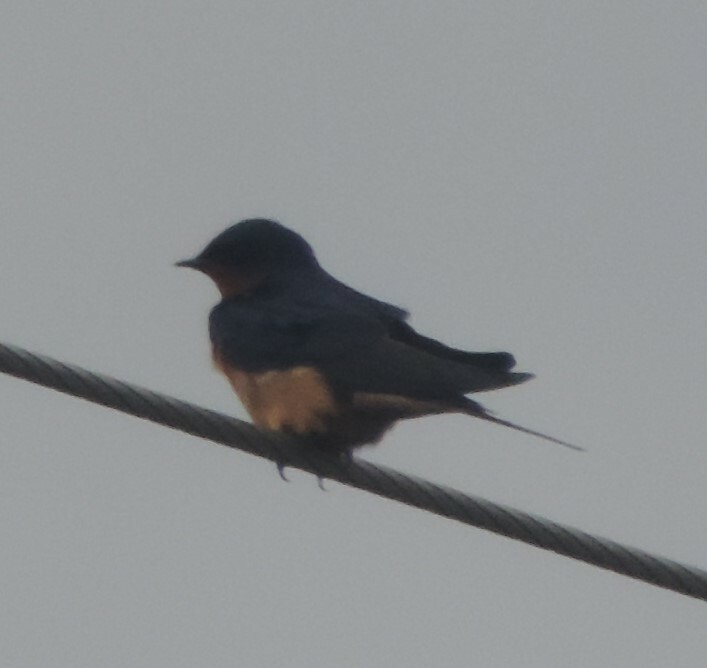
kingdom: Animalia
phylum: Chordata
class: Aves
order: Passeriformes
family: Hirundinidae
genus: Hirundo
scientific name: Hirundo rustica
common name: Barn swallow
